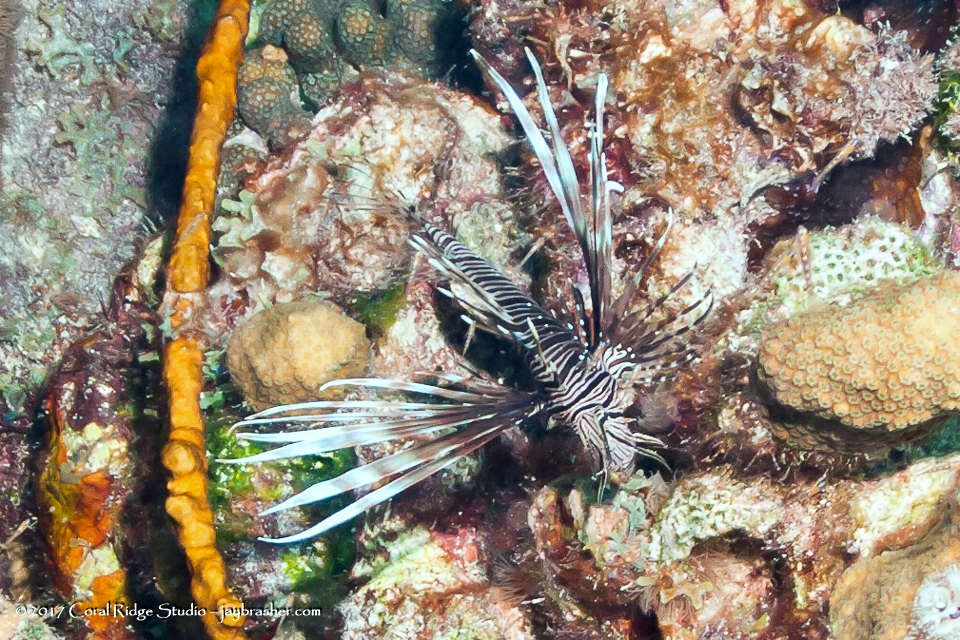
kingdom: Animalia
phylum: Chordata
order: Scorpaeniformes
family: Scorpaenidae
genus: Pterois
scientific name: Pterois volitans
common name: Lionfish
